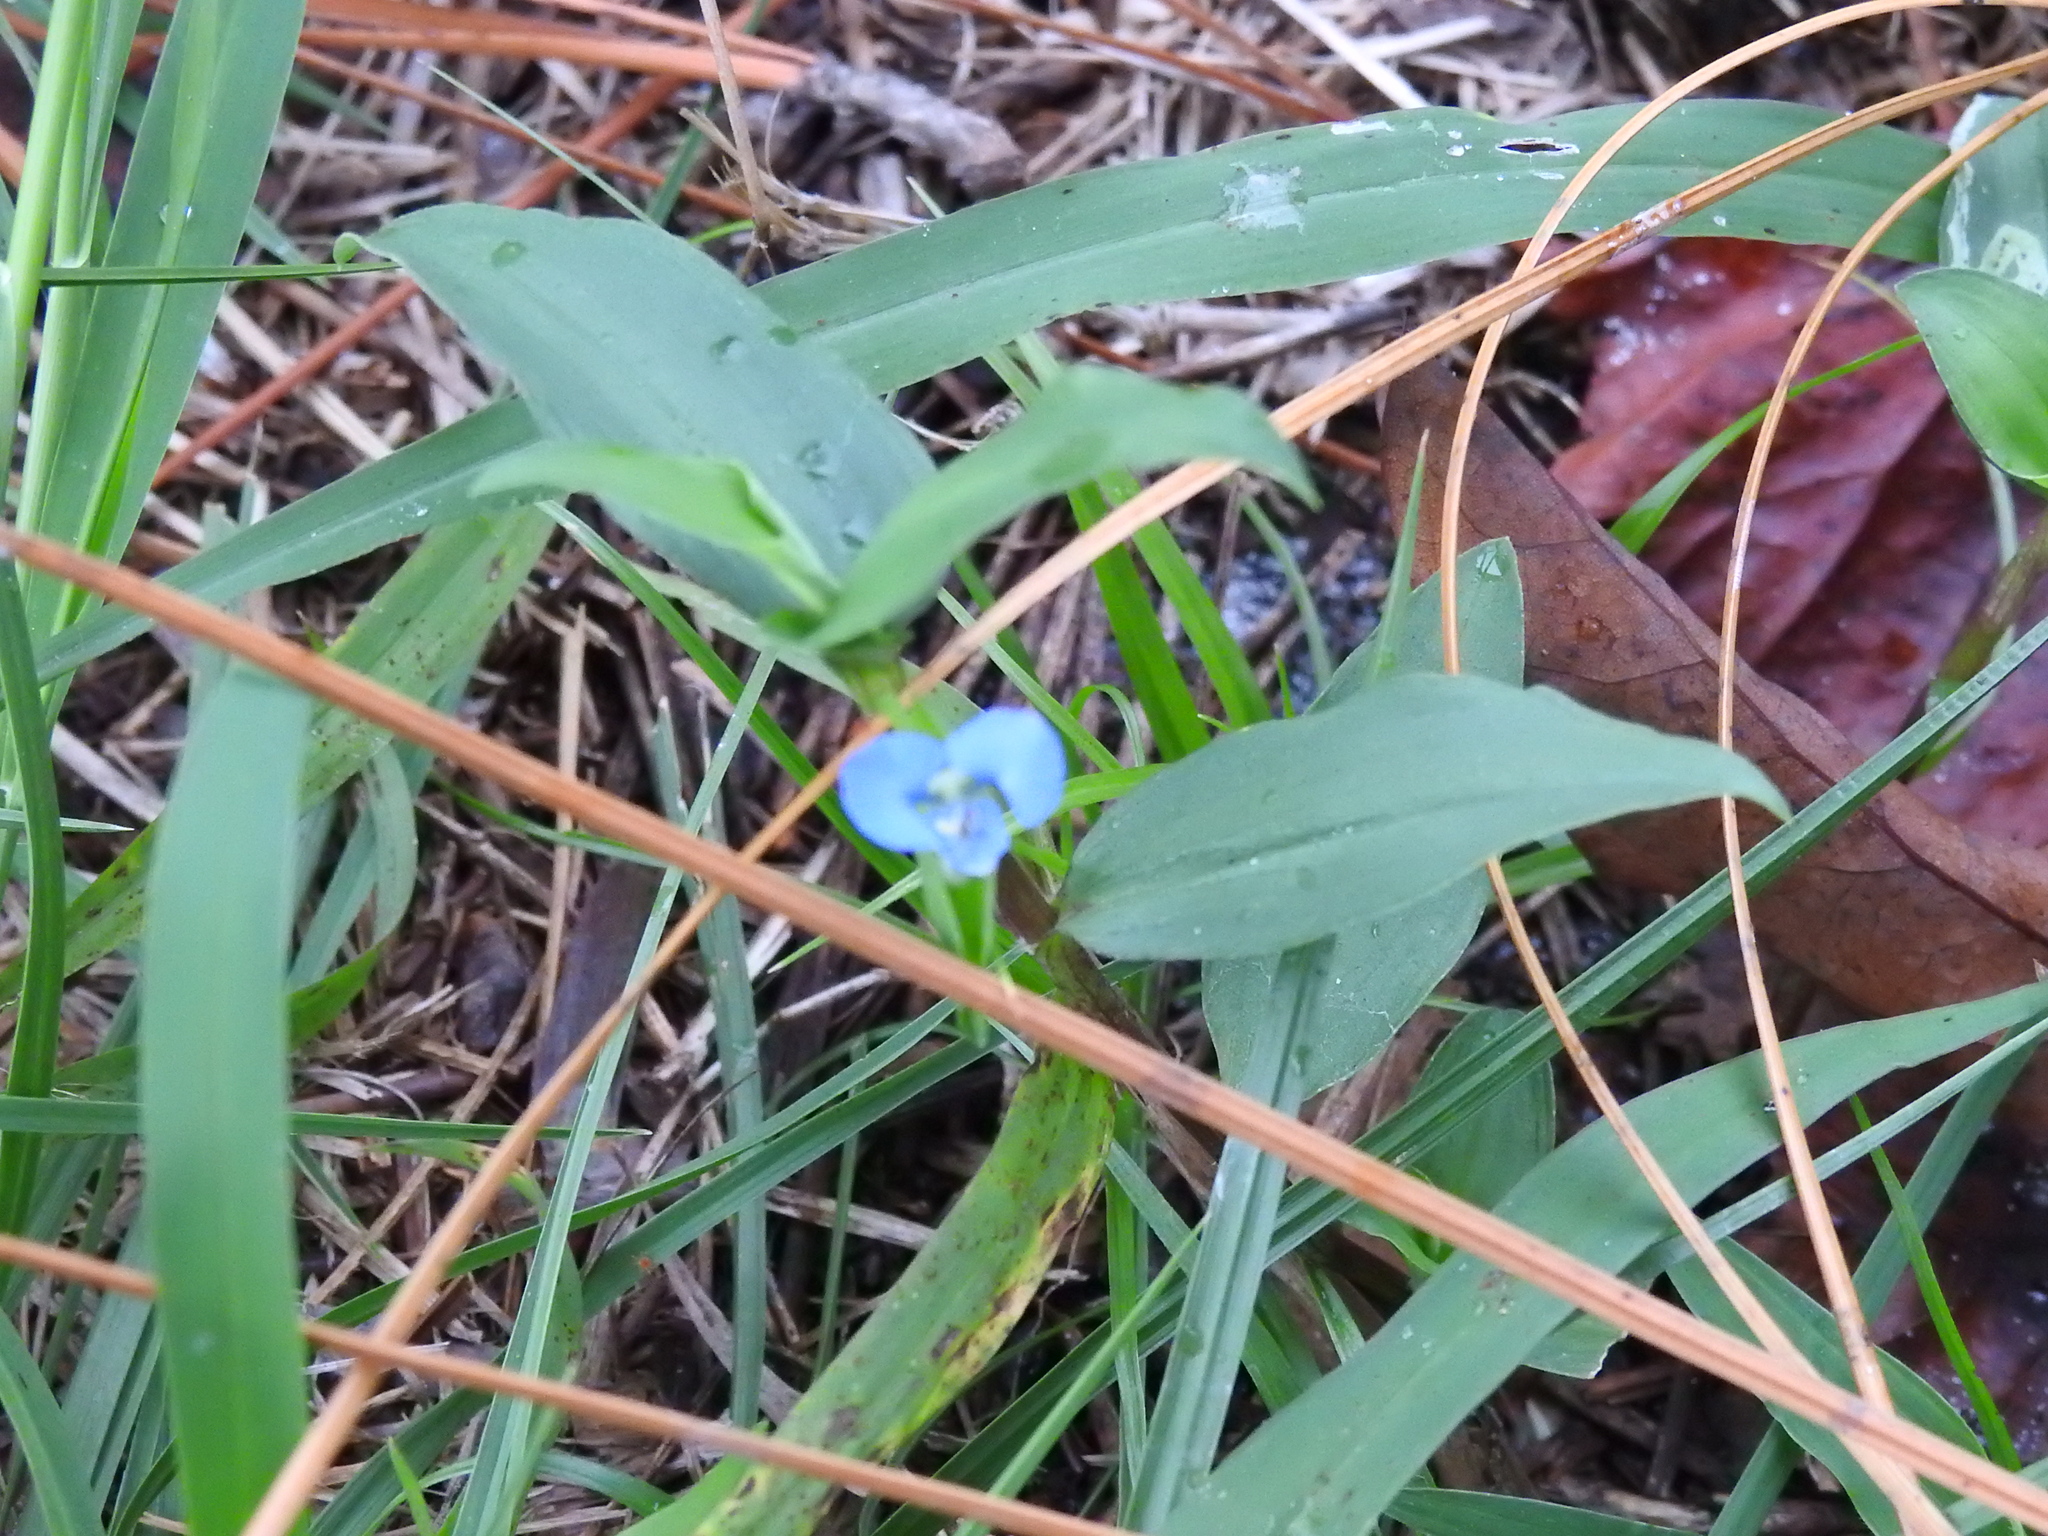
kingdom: Plantae
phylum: Tracheophyta
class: Liliopsida
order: Commelinales
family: Commelinaceae
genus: Commelina
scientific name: Commelina diffusa
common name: Climbing dayflower
